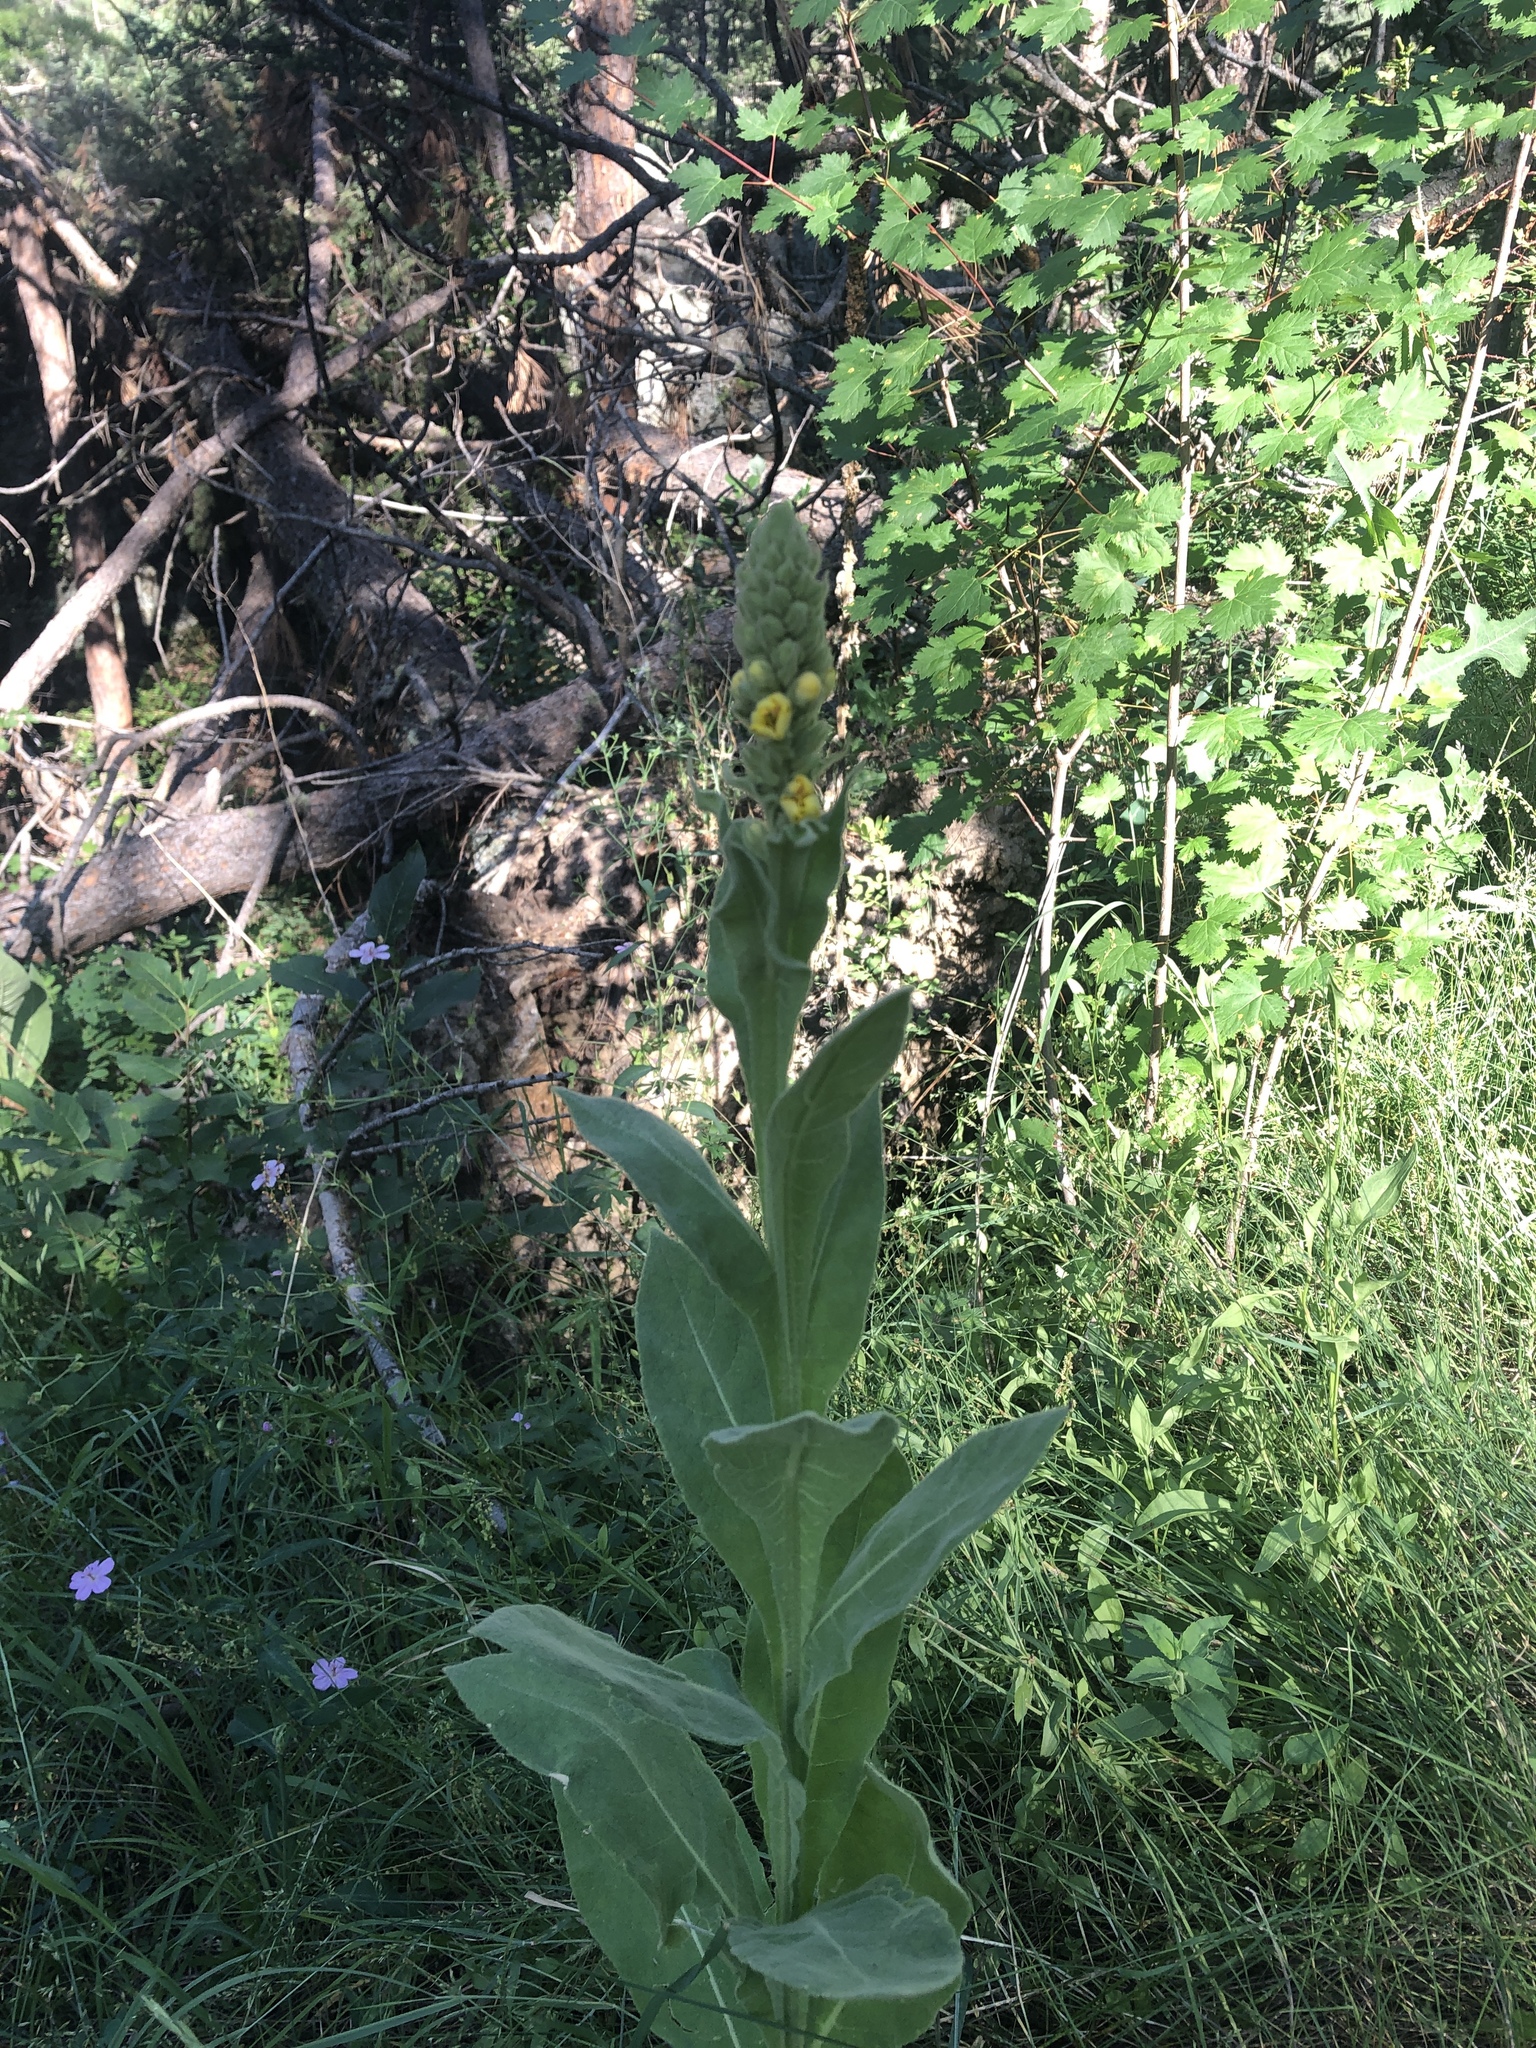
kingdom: Plantae
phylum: Tracheophyta
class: Magnoliopsida
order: Lamiales
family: Scrophulariaceae
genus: Verbascum
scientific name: Verbascum thapsus
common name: Common mullein
